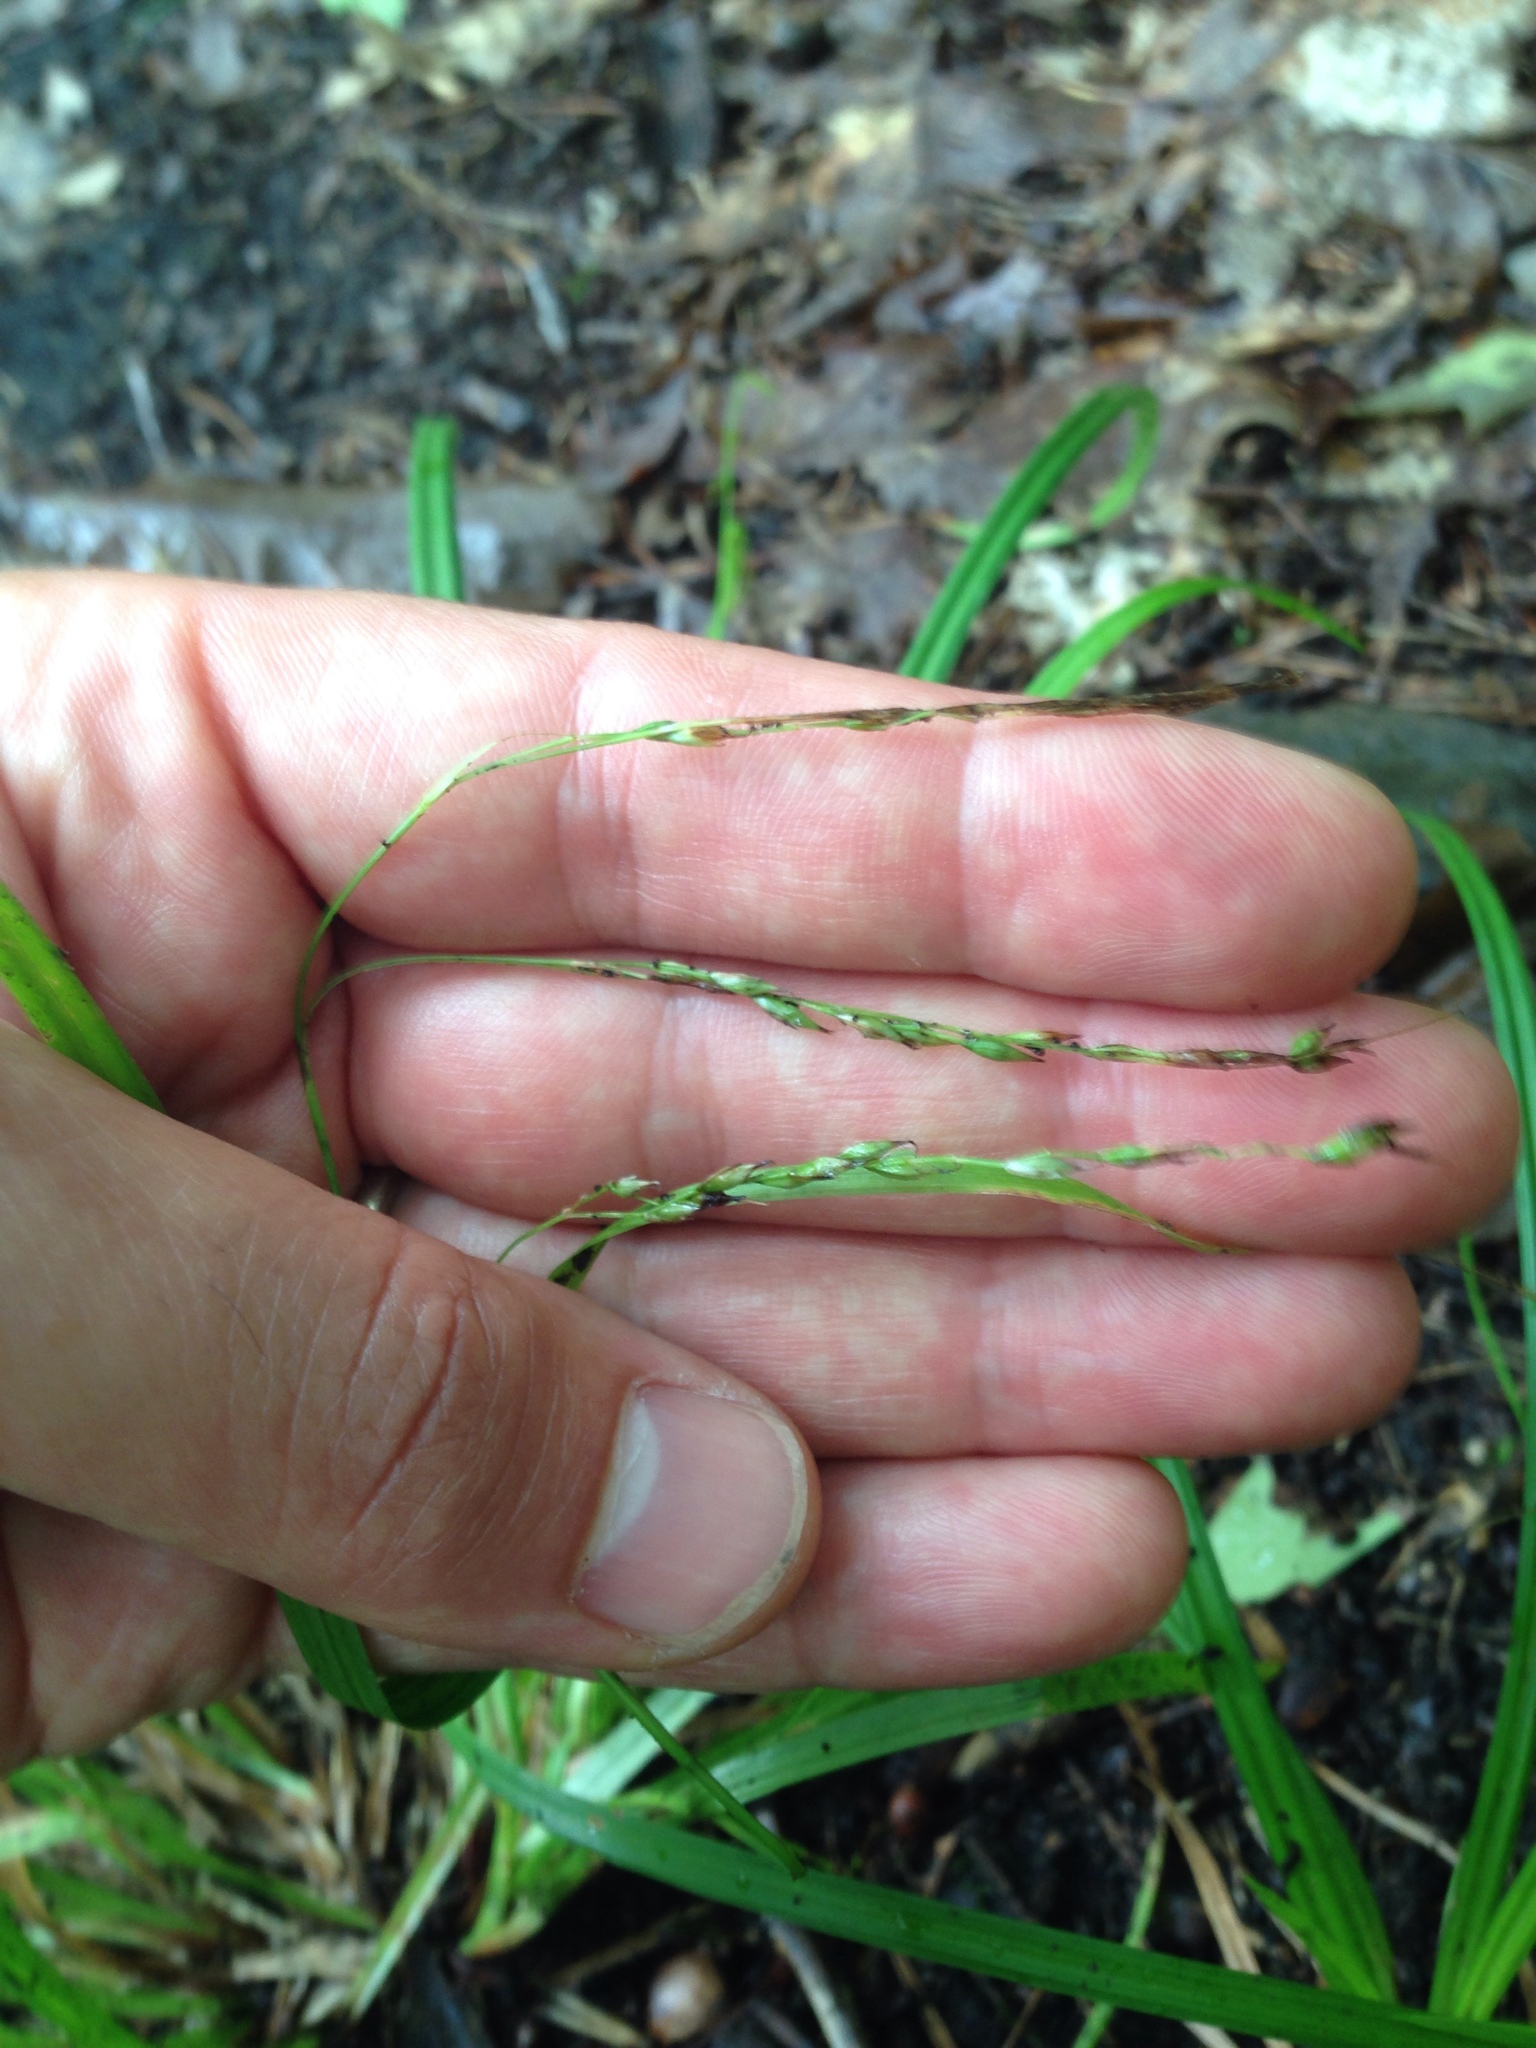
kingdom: Plantae
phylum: Tracheophyta
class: Liliopsida
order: Poales
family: Cyperaceae
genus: Carex
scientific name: Carex arctata
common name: Black sedge
